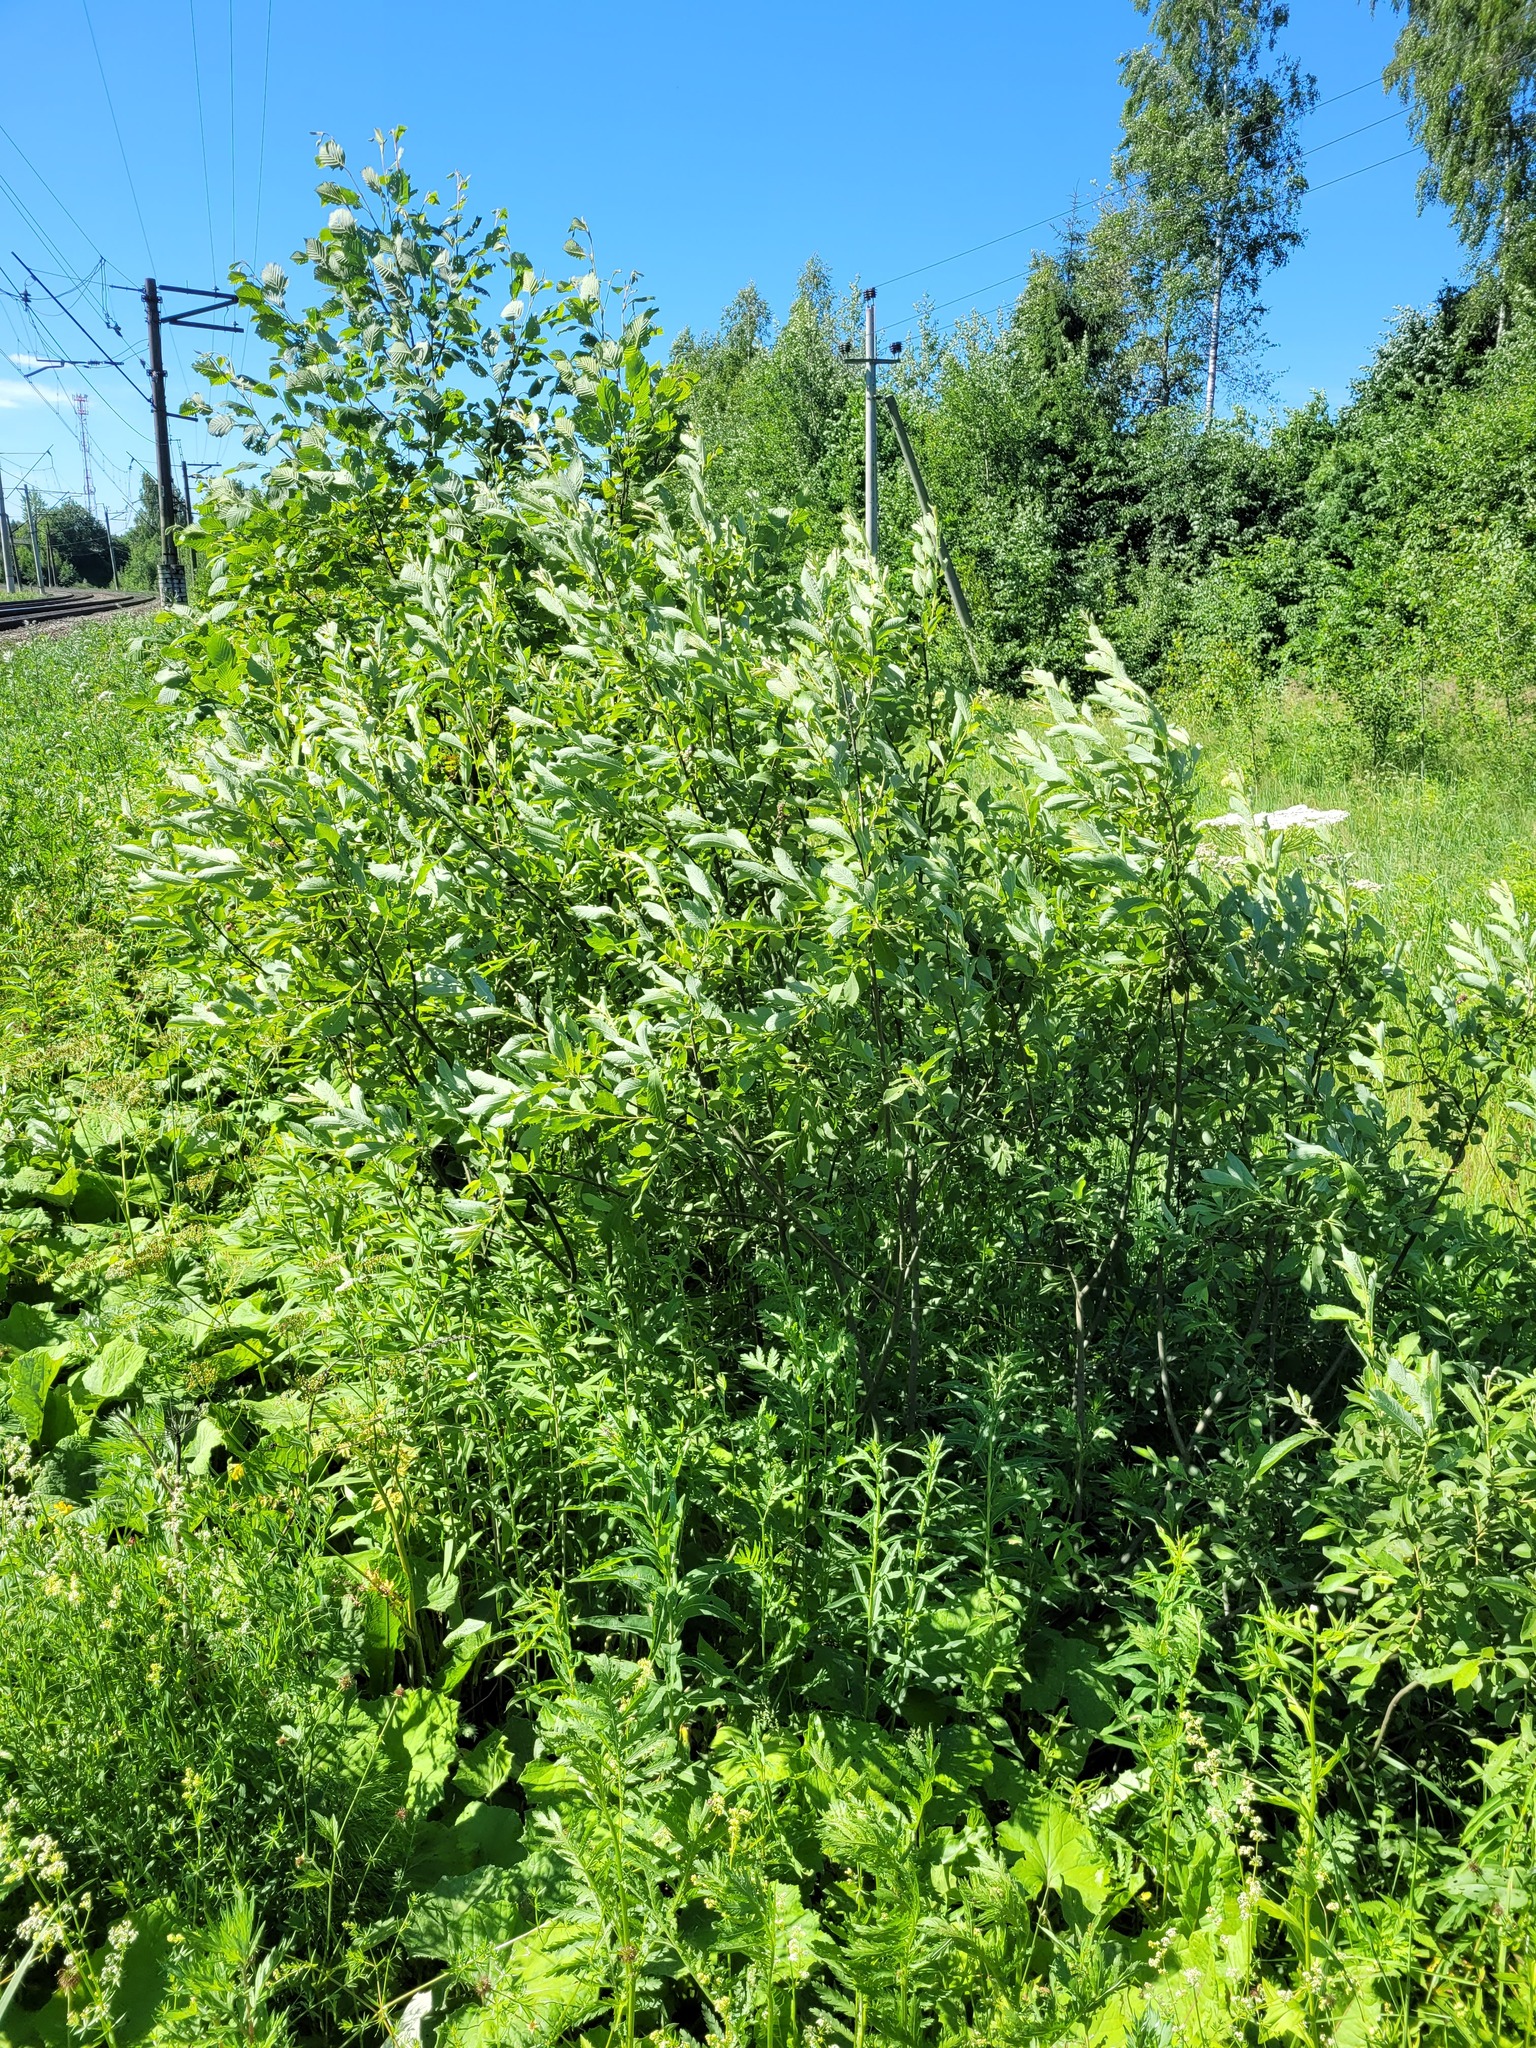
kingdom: Plantae
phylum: Tracheophyta
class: Magnoliopsida
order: Malpighiales
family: Salicaceae
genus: Salix
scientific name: Salix cinerea
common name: Common sallow
